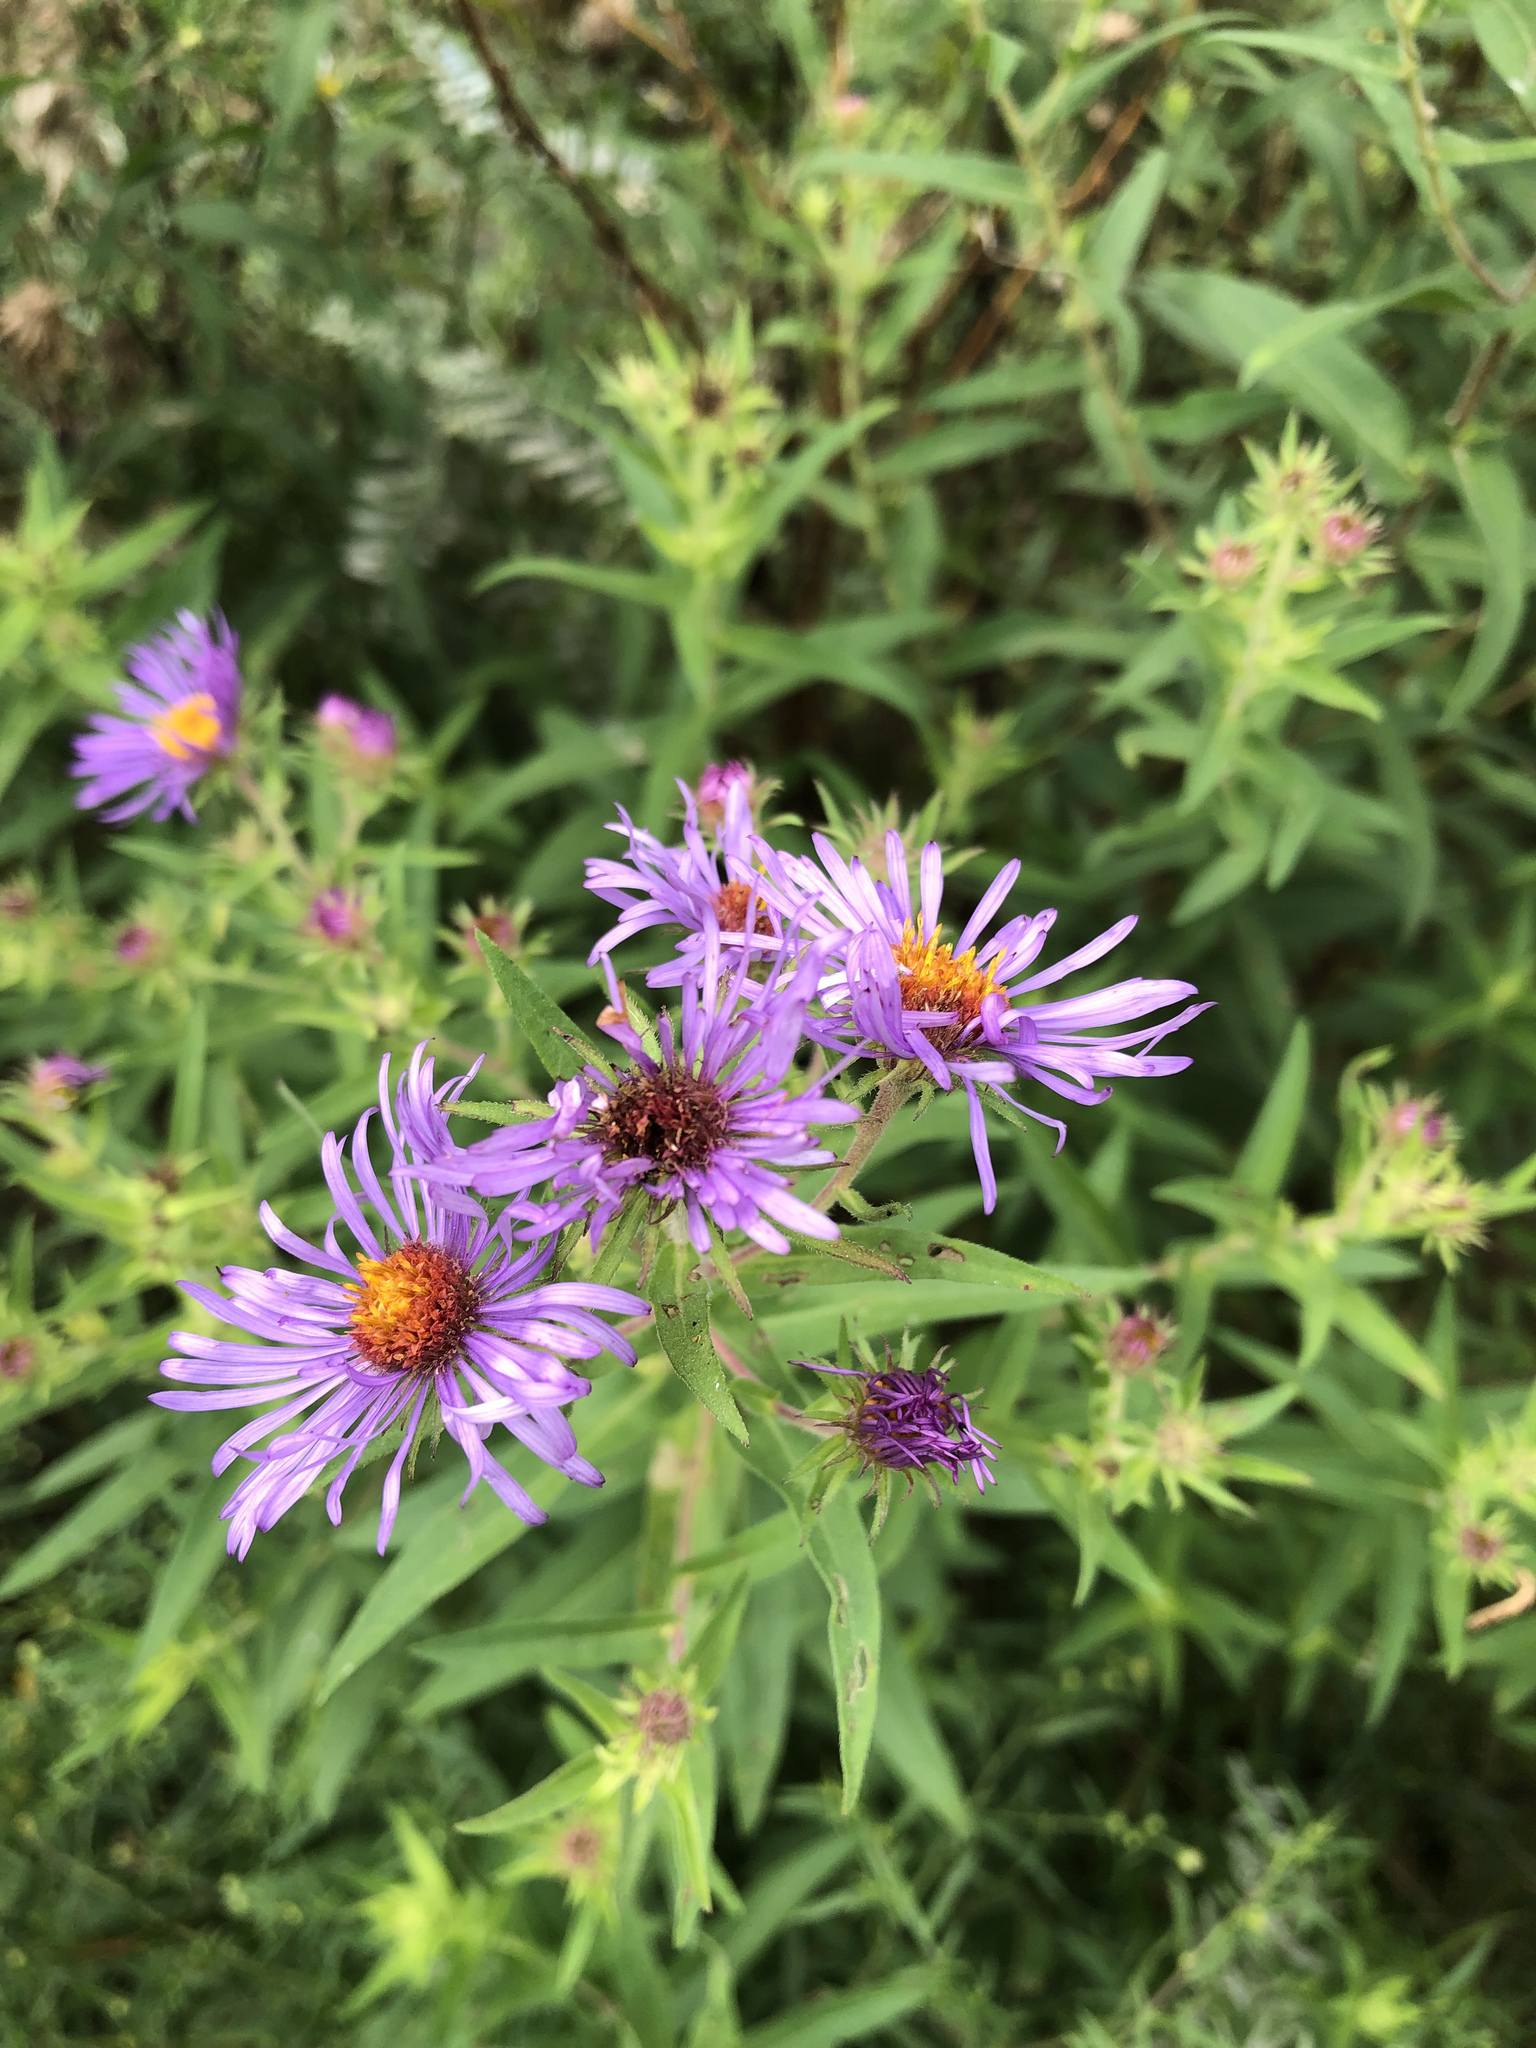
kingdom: Plantae
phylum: Tracheophyta
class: Magnoliopsida
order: Asterales
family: Asteraceae
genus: Symphyotrichum
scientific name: Symphyotrichum novae-angliae
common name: Michaelmas daisy
